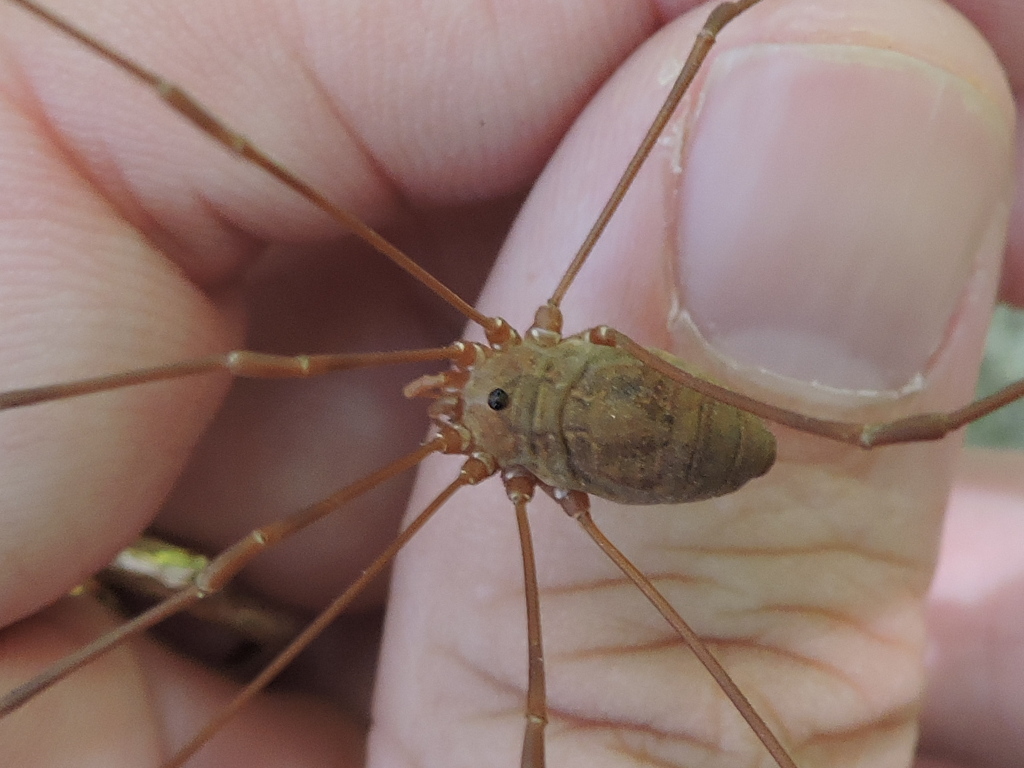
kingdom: Animalia
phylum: Arthropoda
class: Arachnida
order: Opiliones
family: Sclerosomatidae
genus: Leiobunum
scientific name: Leiobunum ventricosum
